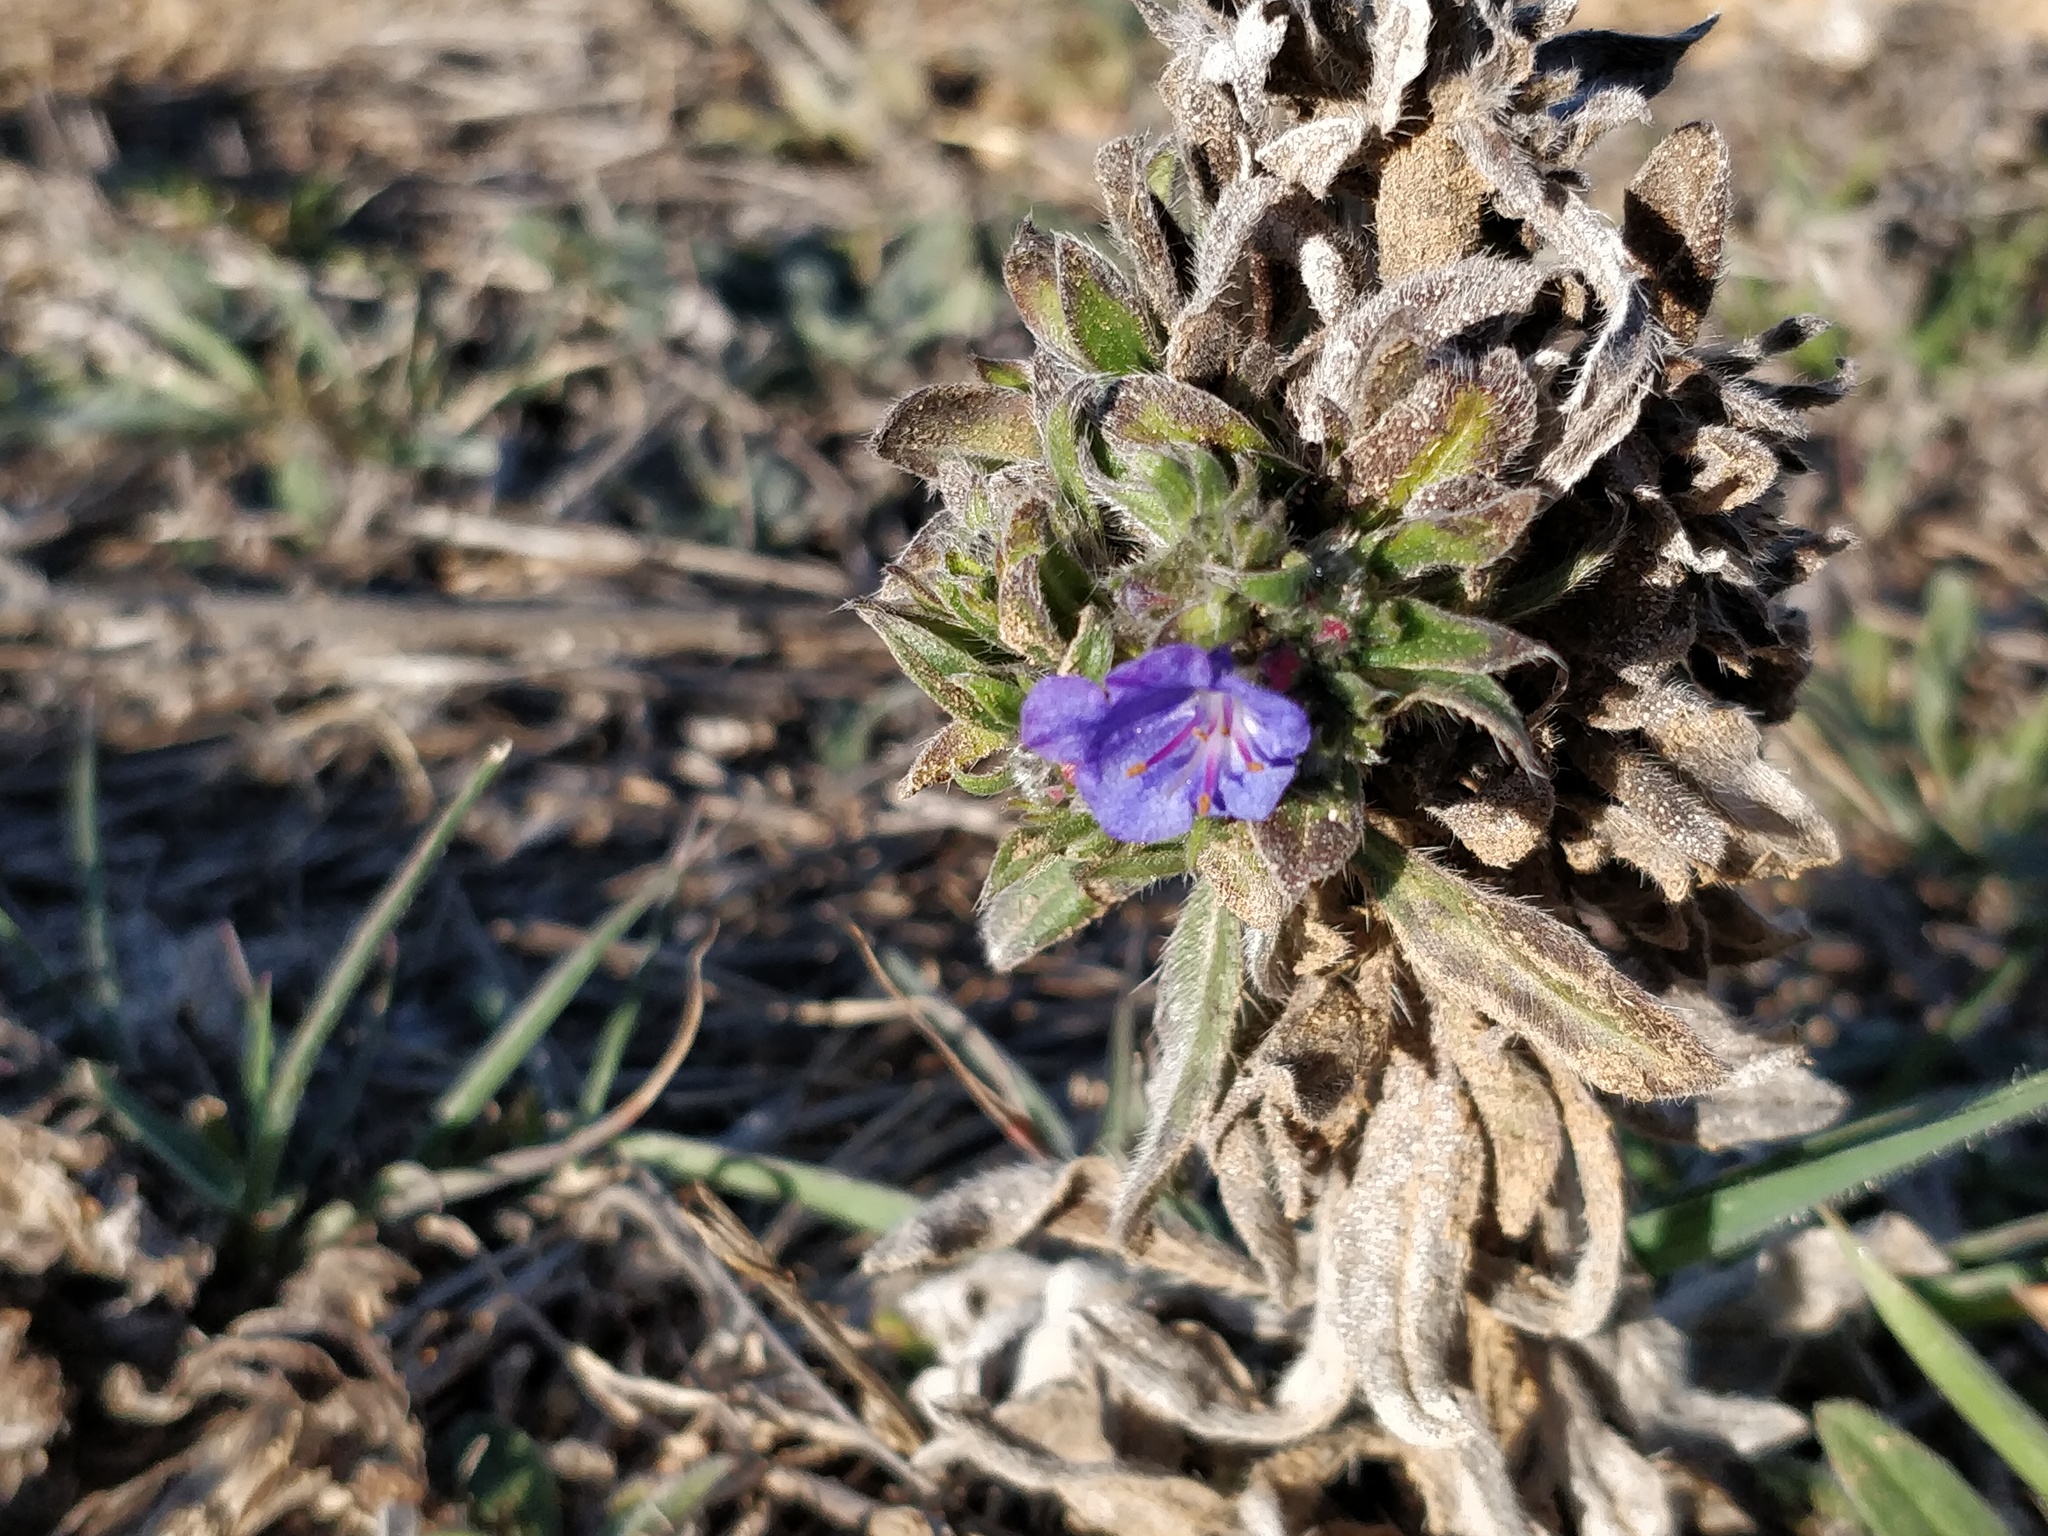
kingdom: Plantae
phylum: Tracheophyta
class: Magnoliopsida
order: Boraginales
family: Boraginaceae
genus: Echium
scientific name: Echium vulgare
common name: Common viper's bugloss
